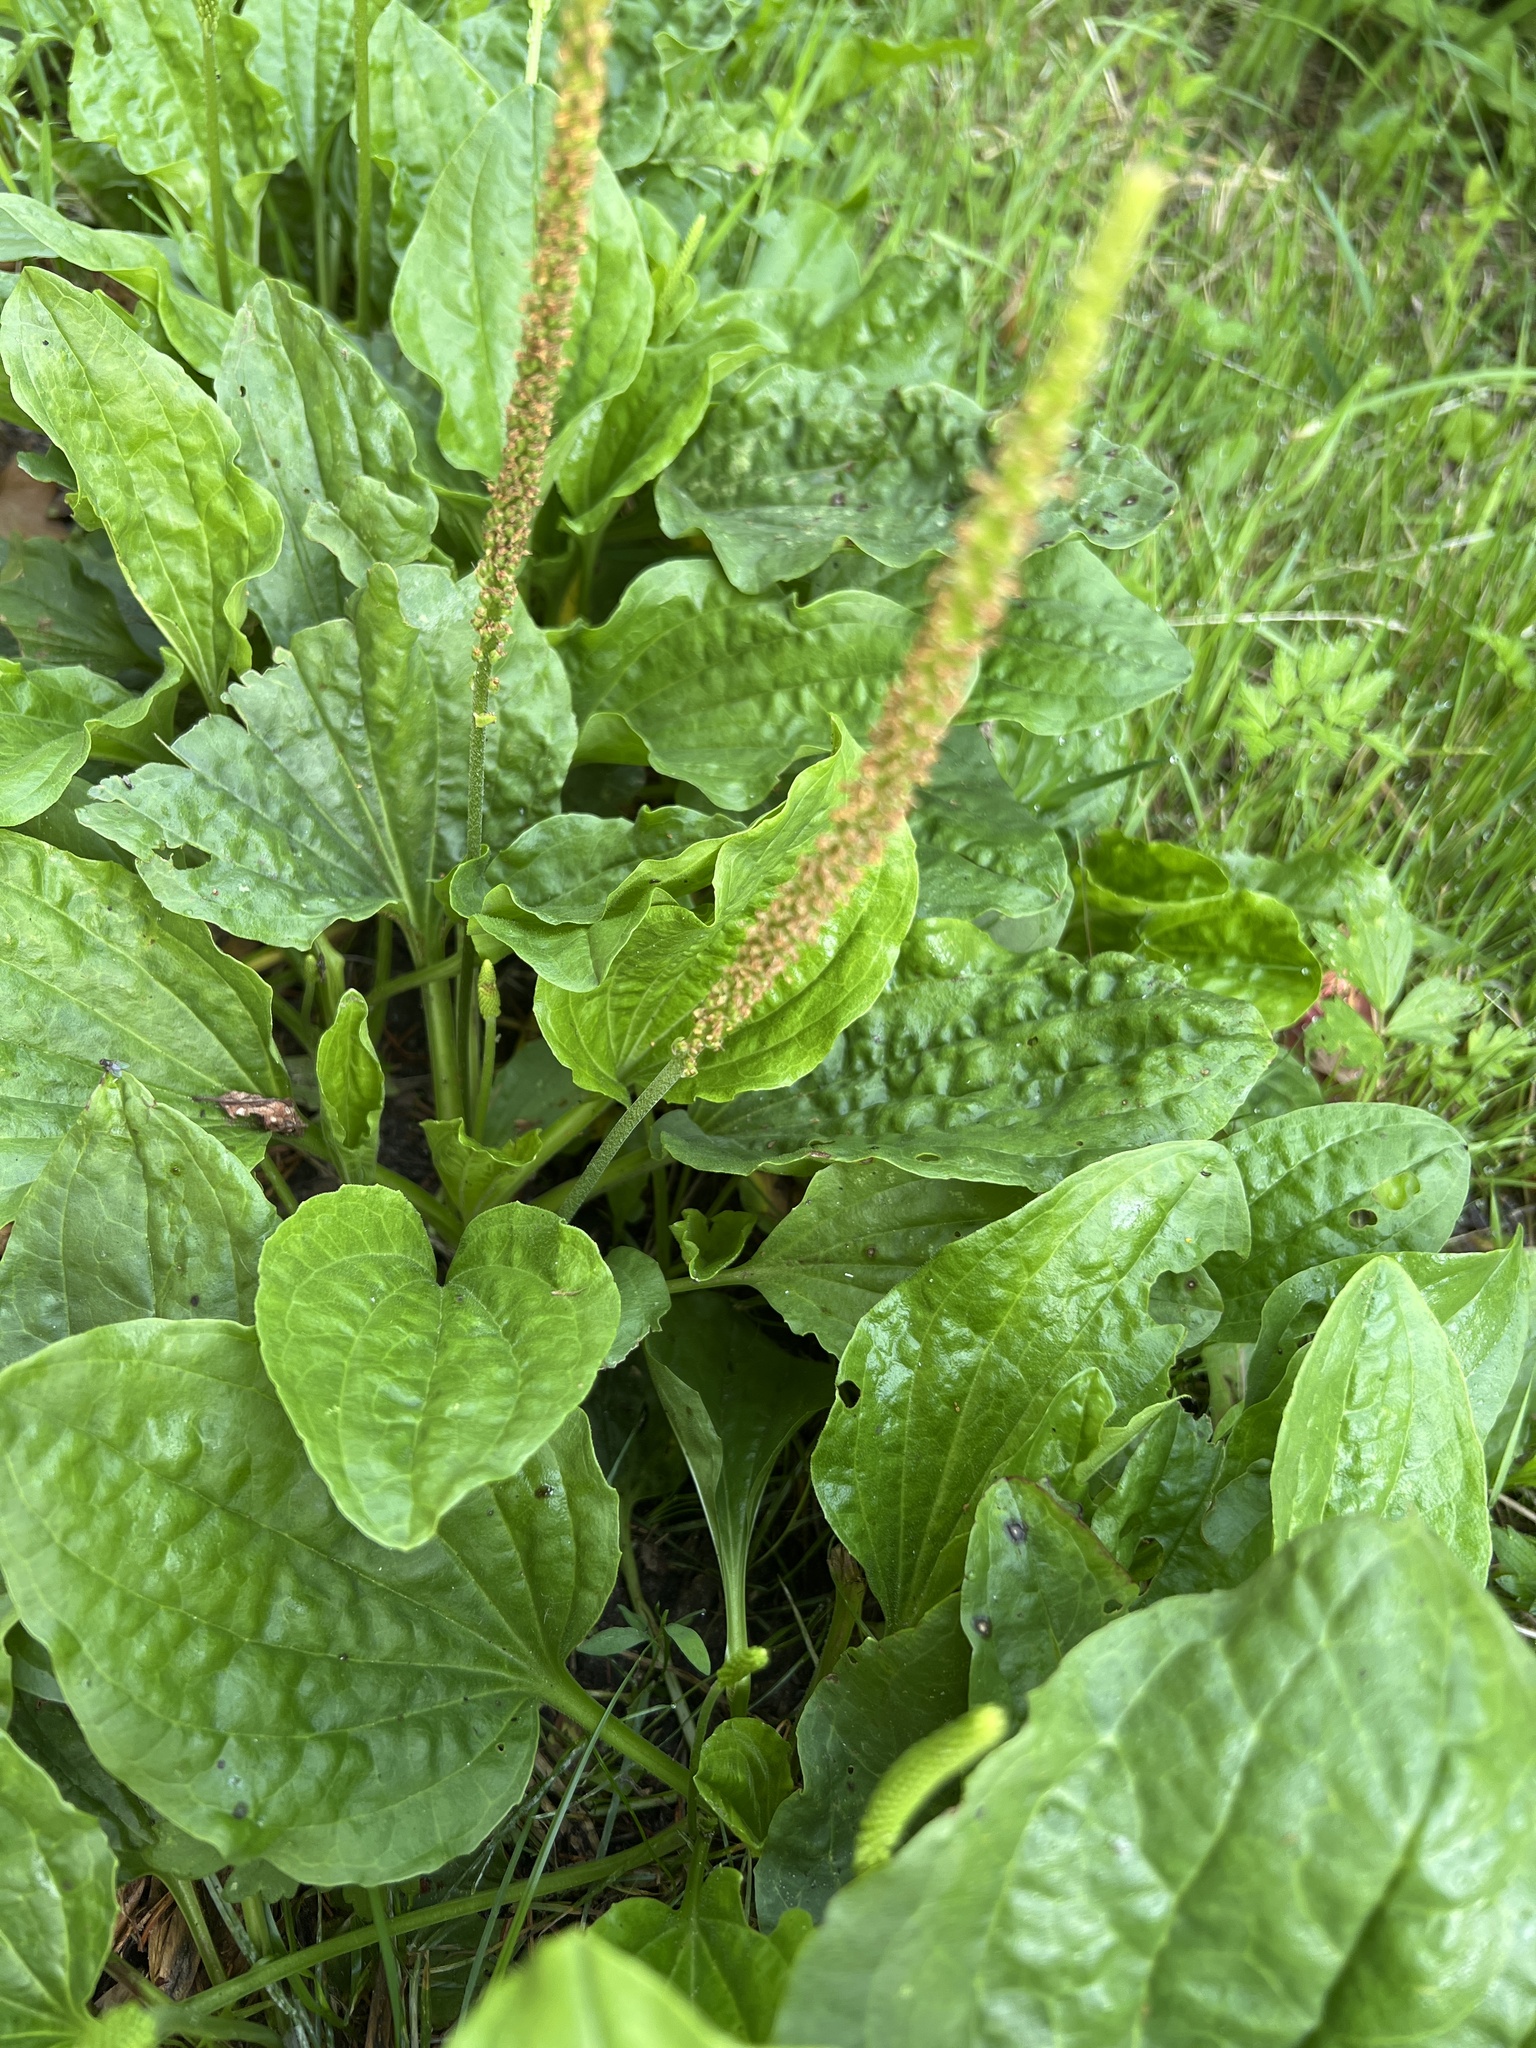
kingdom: Plantae
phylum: Tracheophyta
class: Magnoliopsida
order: Lamiales
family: Plantaginaceae
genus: Plantago
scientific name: Plantago major
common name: Common plantain
